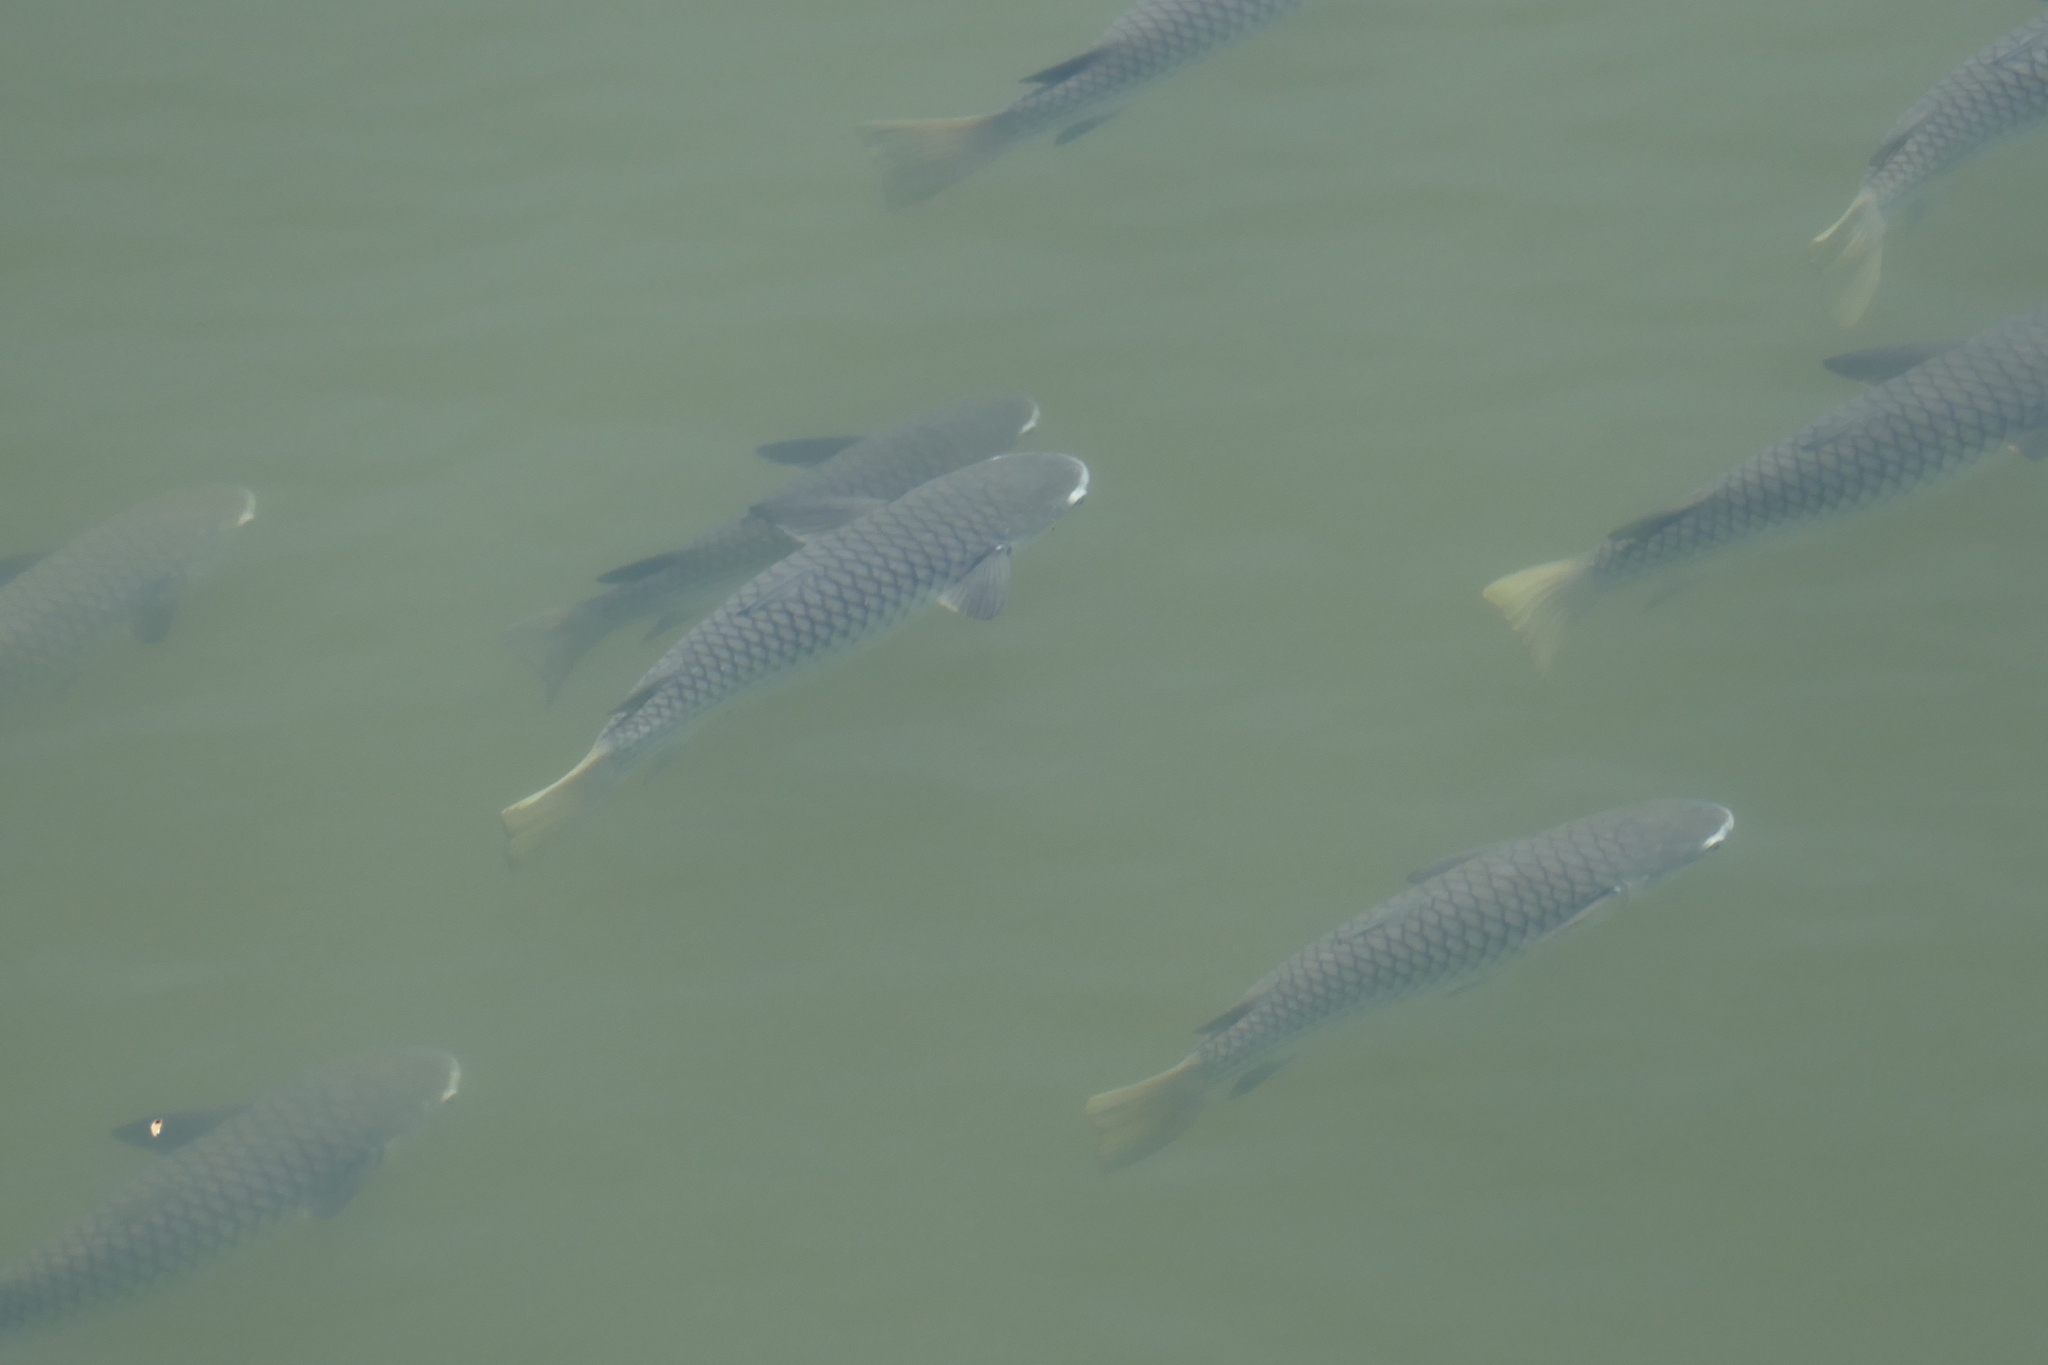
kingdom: Animalia
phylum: Chordata
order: Mugiliformes
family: Mugilidae
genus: Ellochelon
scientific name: Ellochelon vaigiensis
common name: Squaretail mullet
